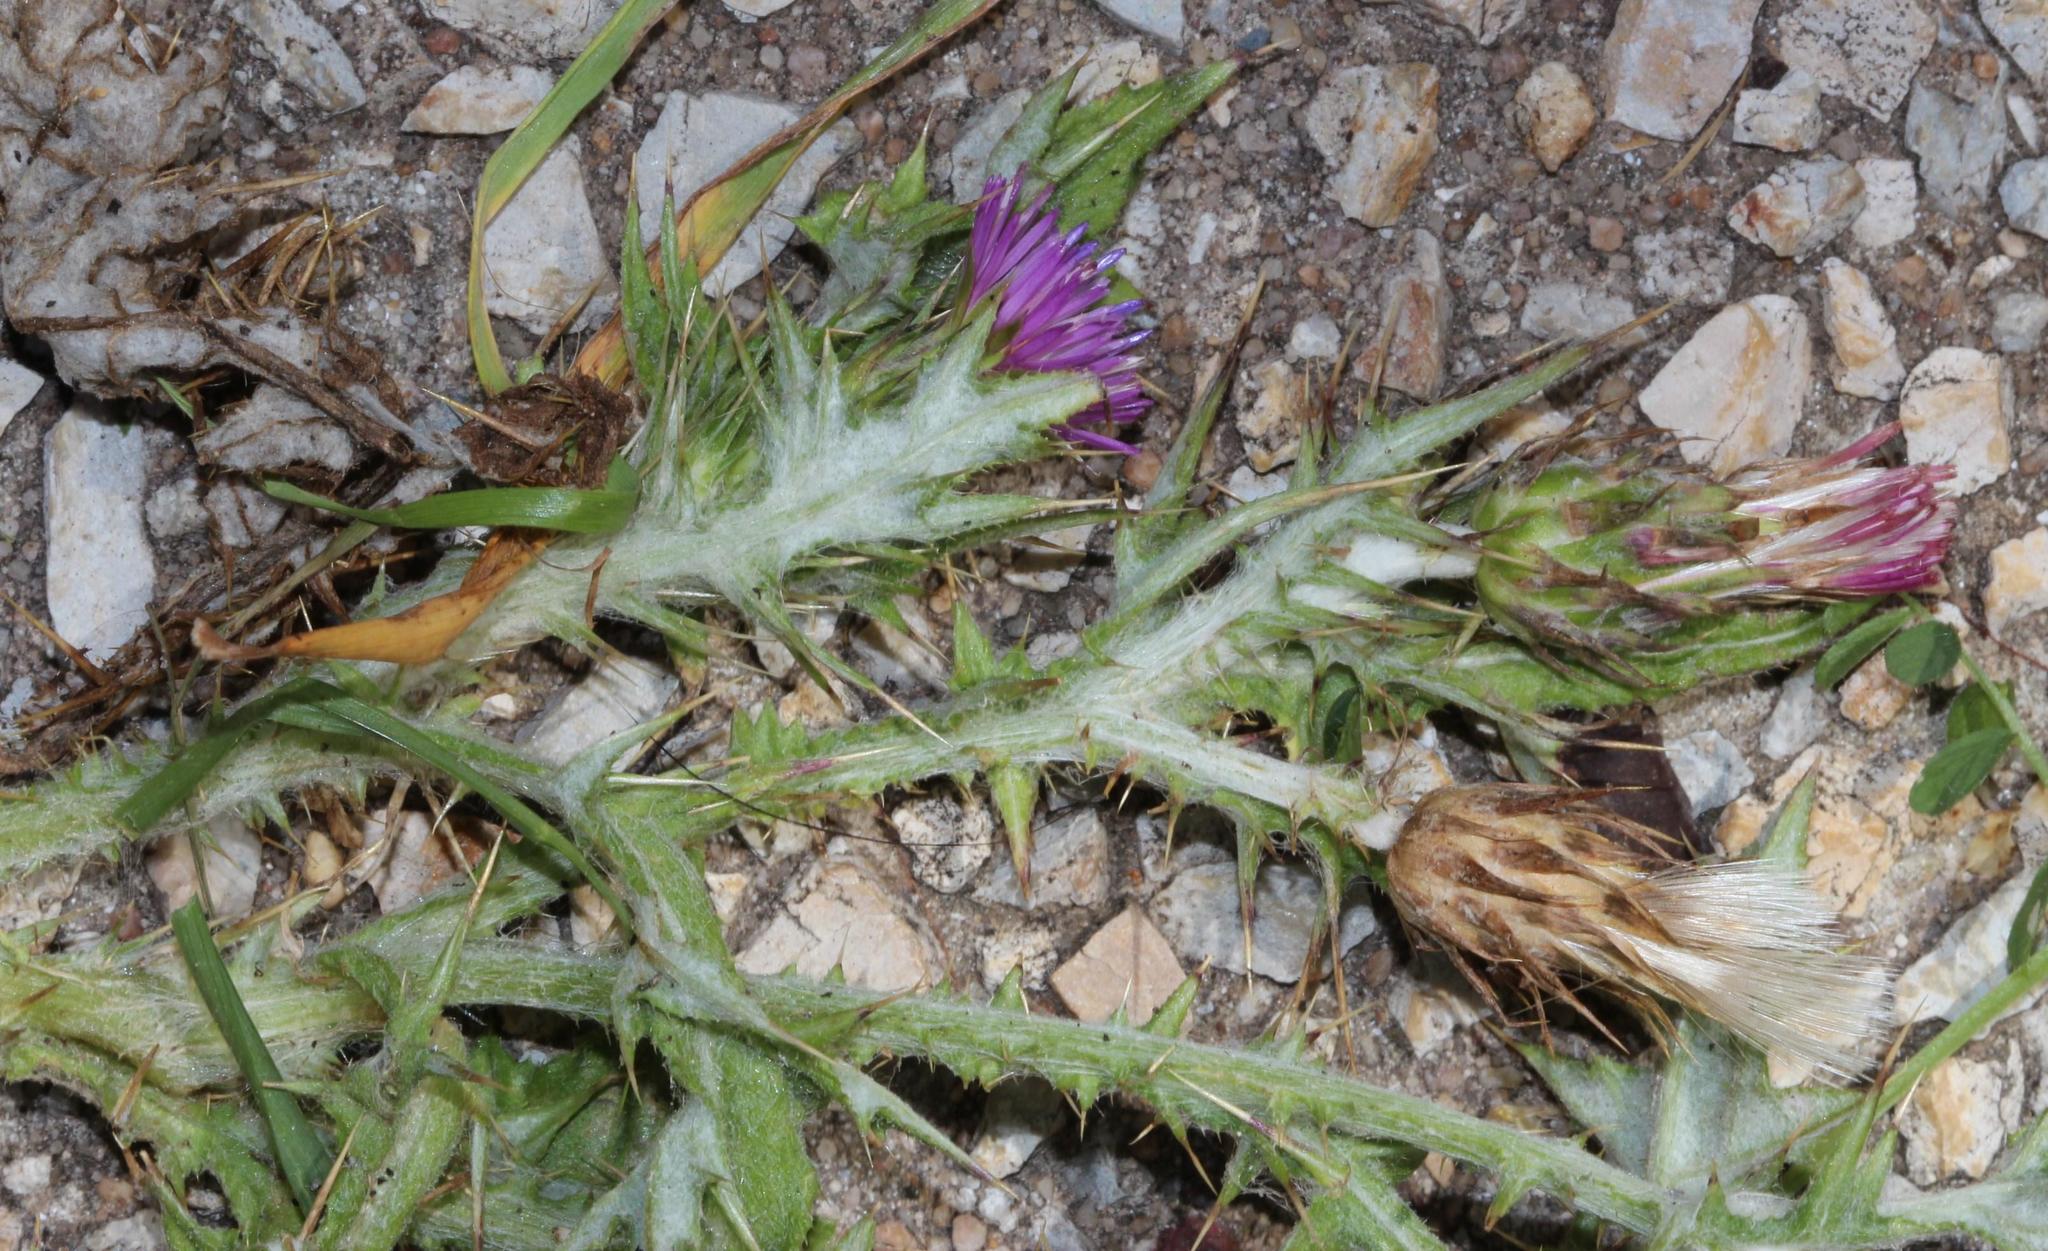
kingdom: Plantae
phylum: Tracheophyta
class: Magnoliopsida
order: Asterales
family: Asteraceae
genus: Carduus
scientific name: Carduus tenuiflorus
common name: Slender thistle
